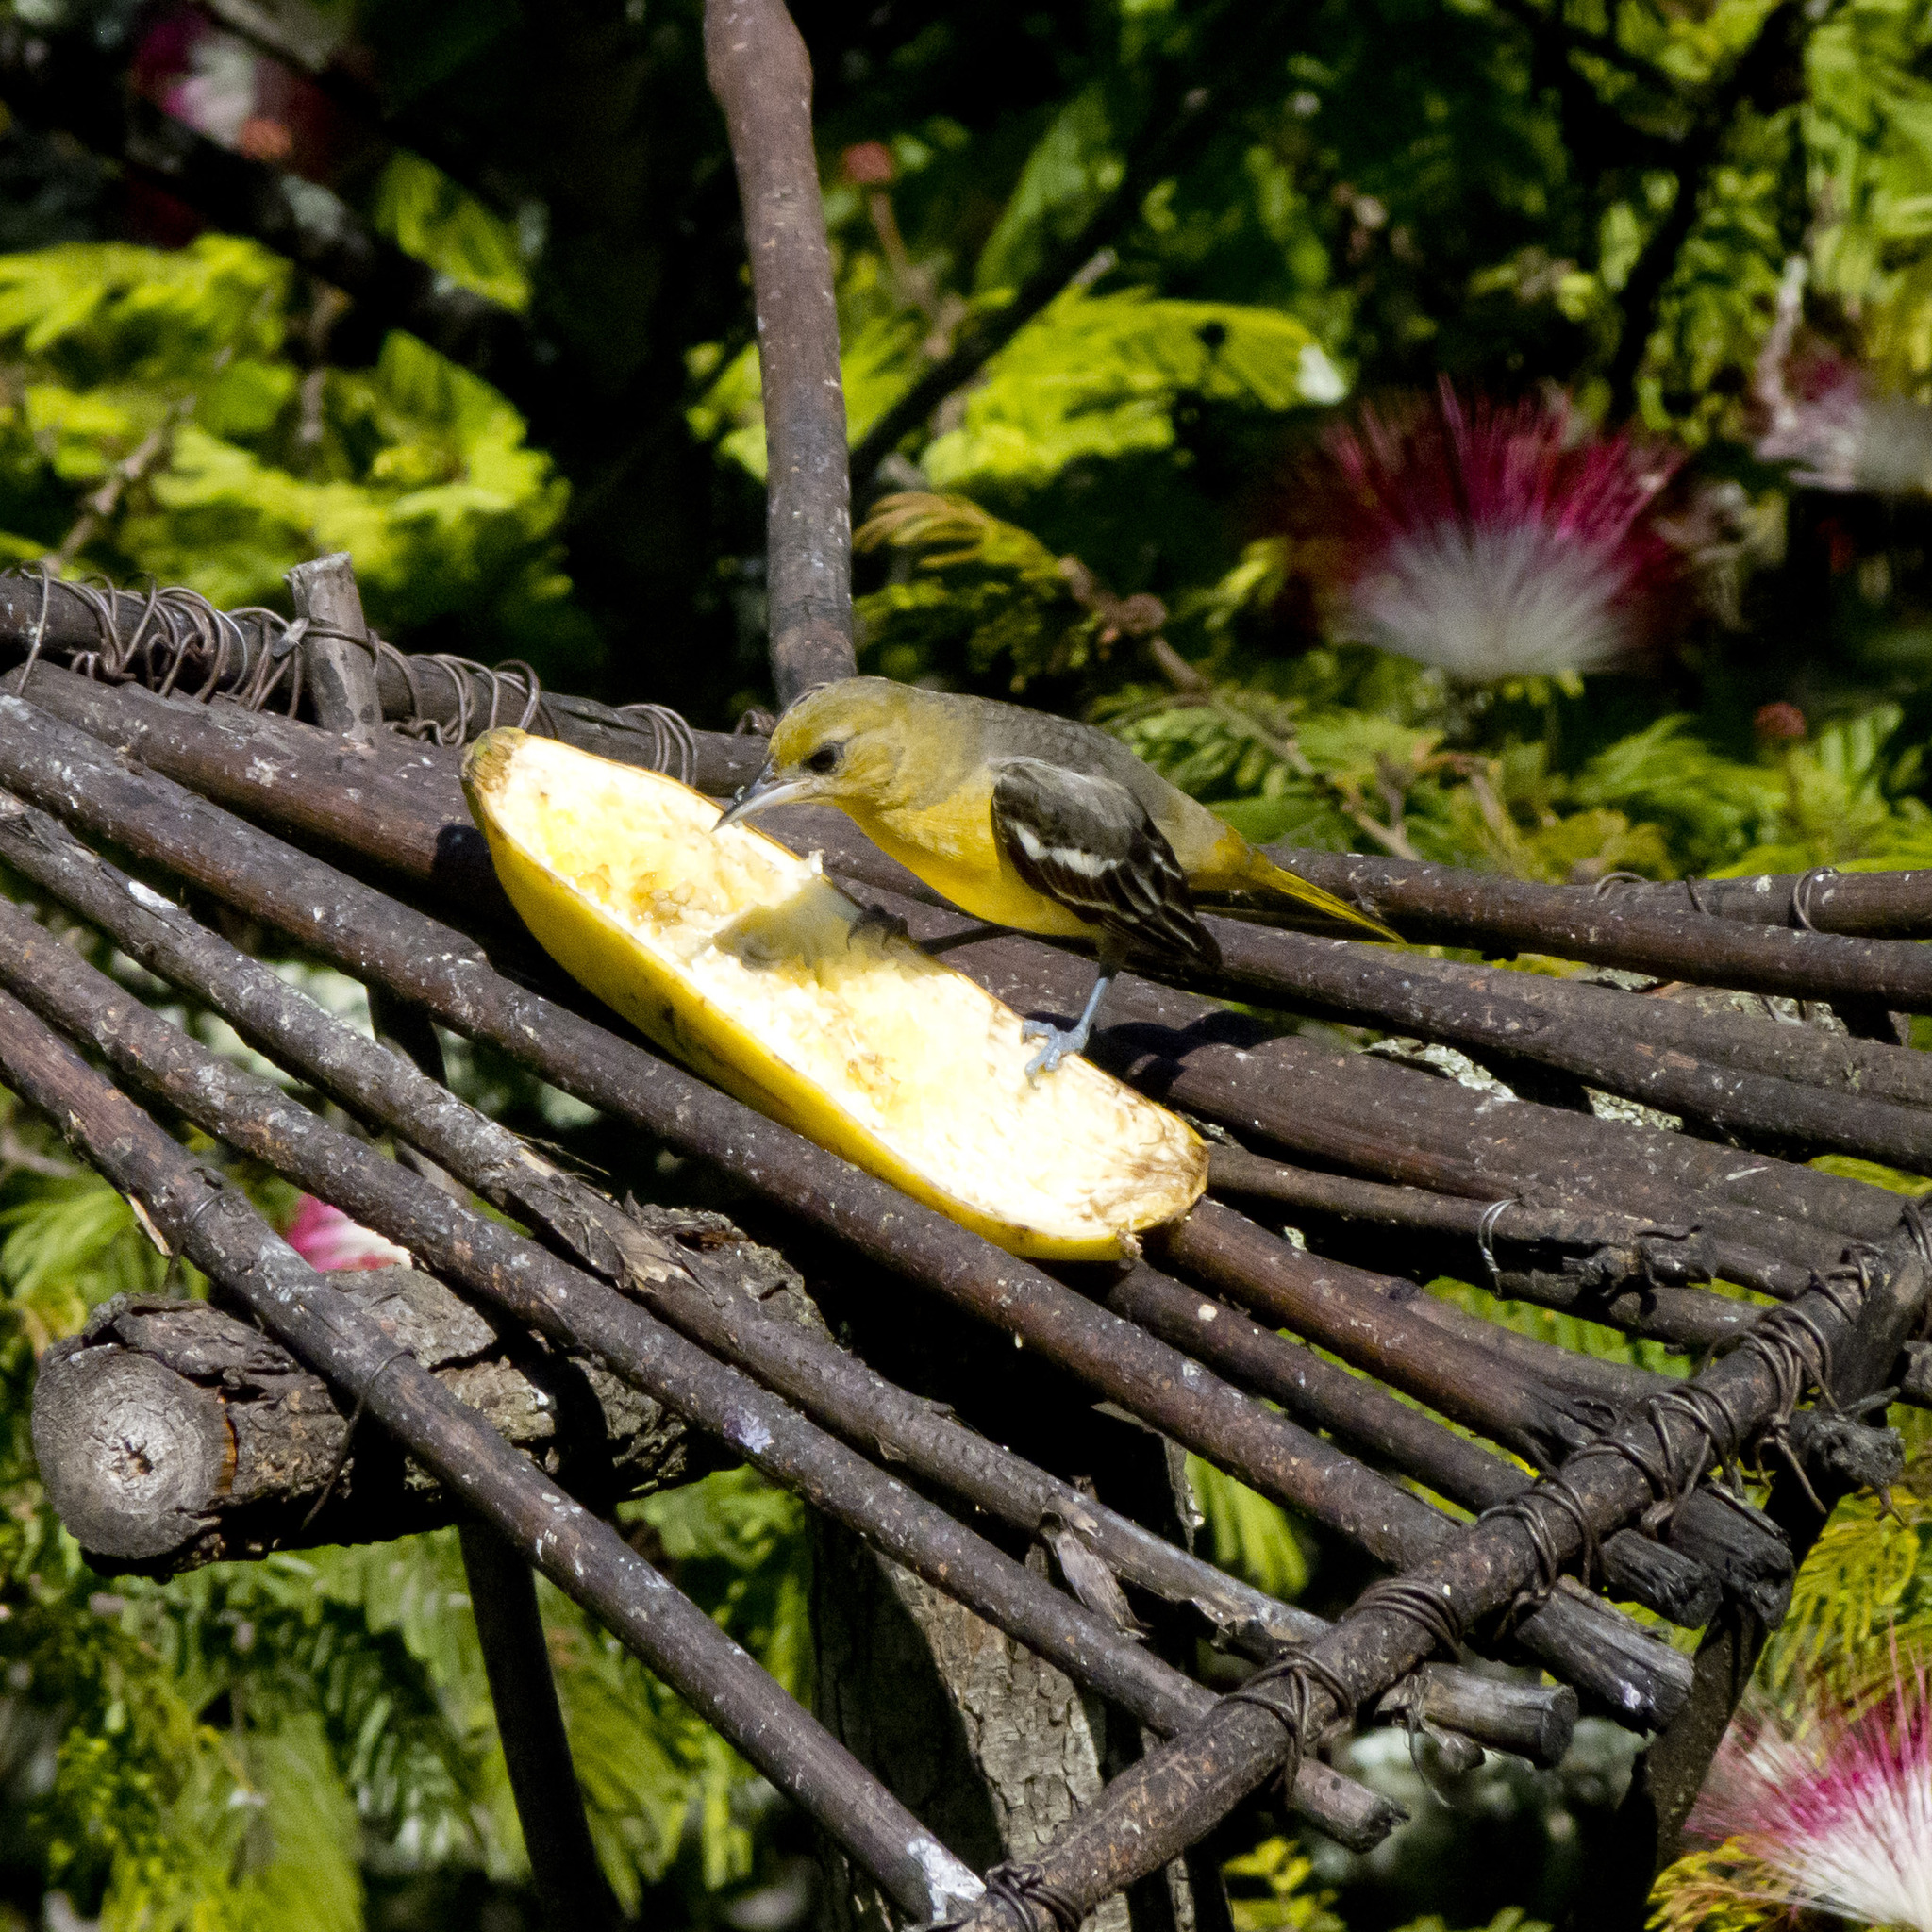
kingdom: Animalia
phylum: Chordata
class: Aves
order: Passeriformes
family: Icteridae
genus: Icterus
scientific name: Icterus galbula
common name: Baltimore oriole
